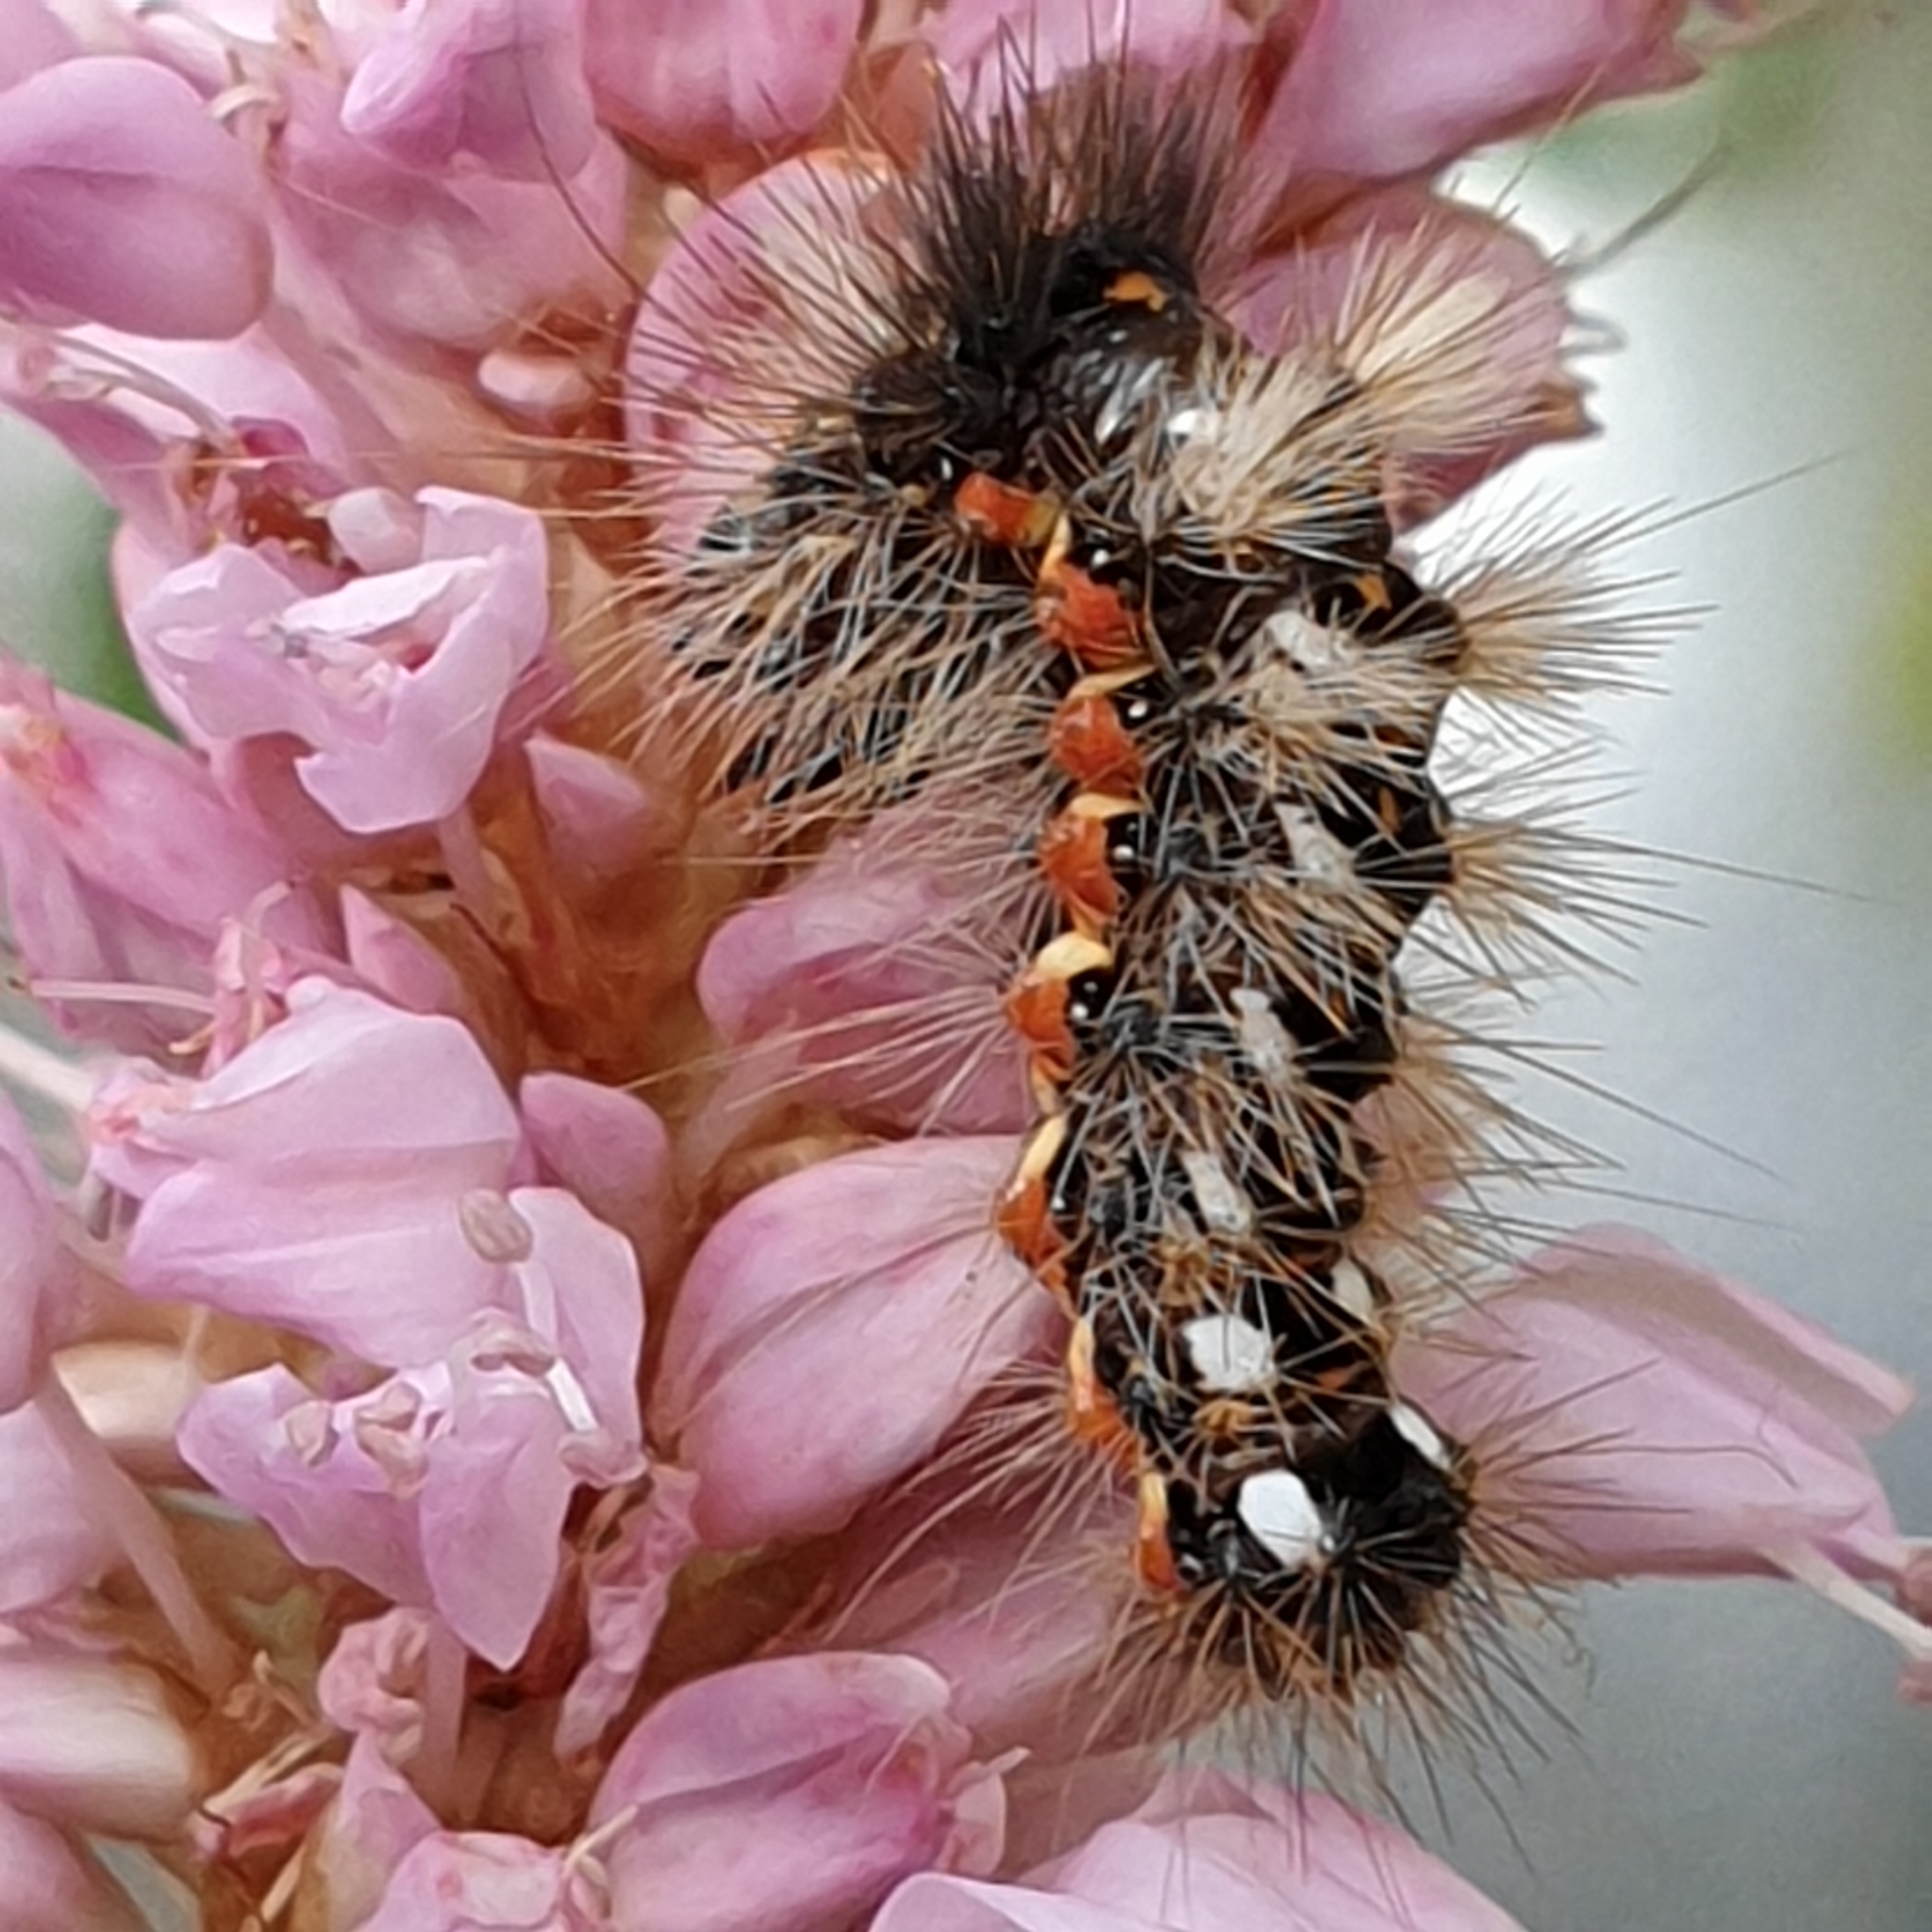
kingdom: Animalia
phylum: Arthropoda
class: Insecta
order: Lepidoptera
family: Noctuidae
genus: Acronicta
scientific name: Acronicta rumicis
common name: Knot grass
